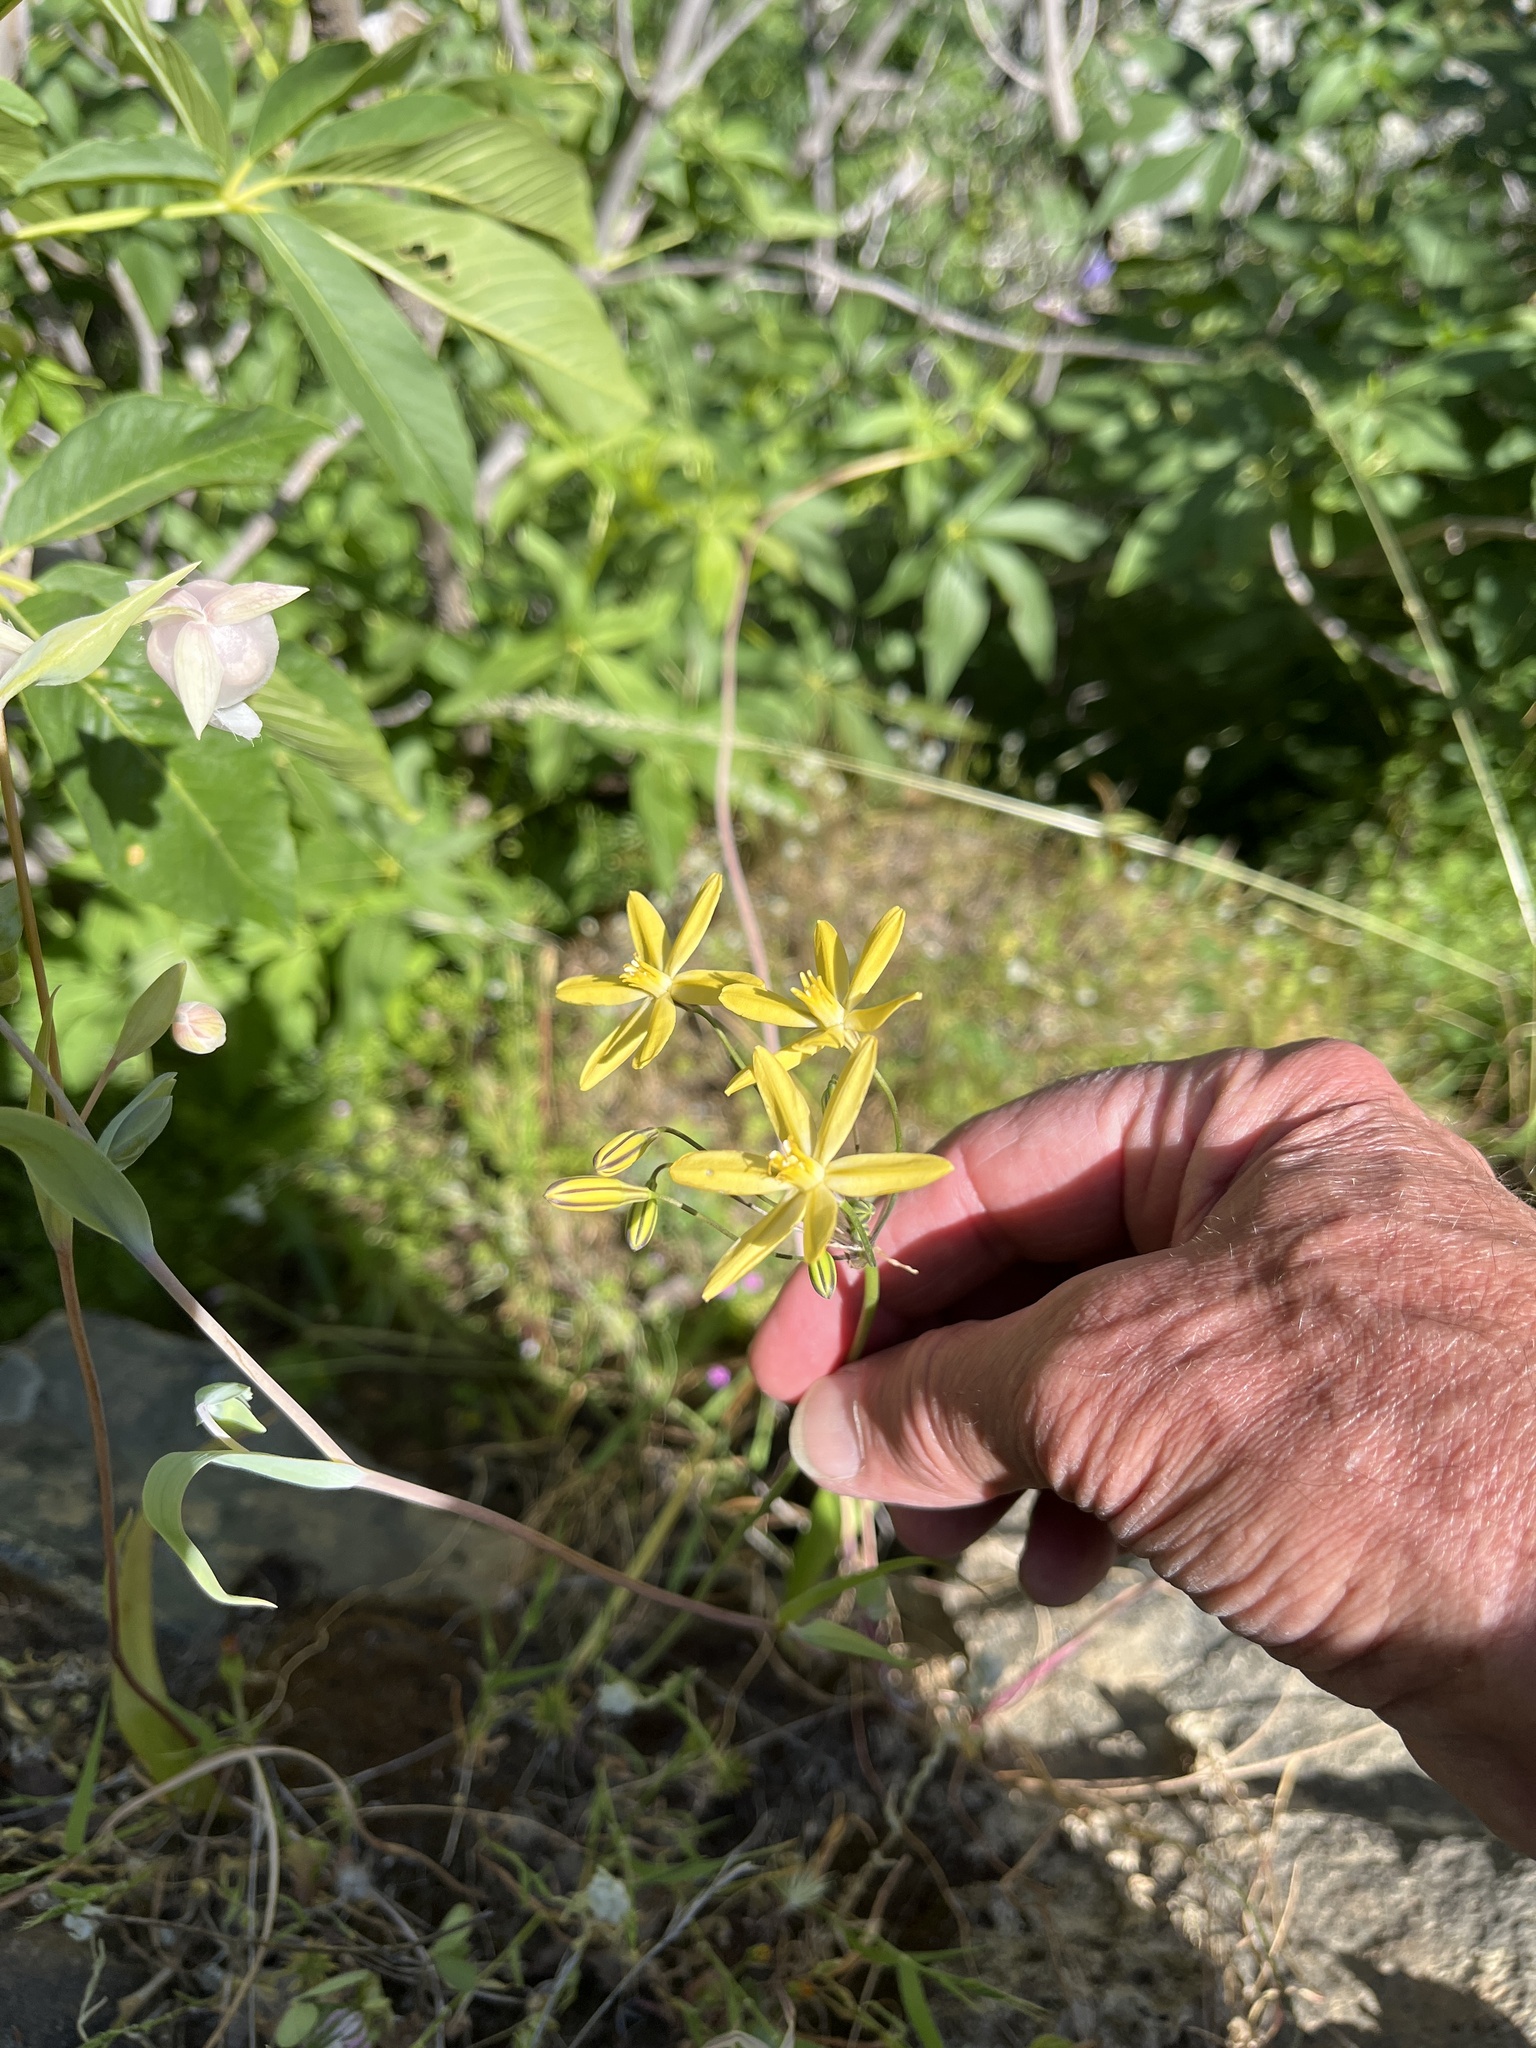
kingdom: Plantae
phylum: Tracheophyta
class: Liliopsida
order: Asparagales
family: Asparagaceae
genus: Triteleia
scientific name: Triteleia ixioides
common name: Yellow-brodiaea
